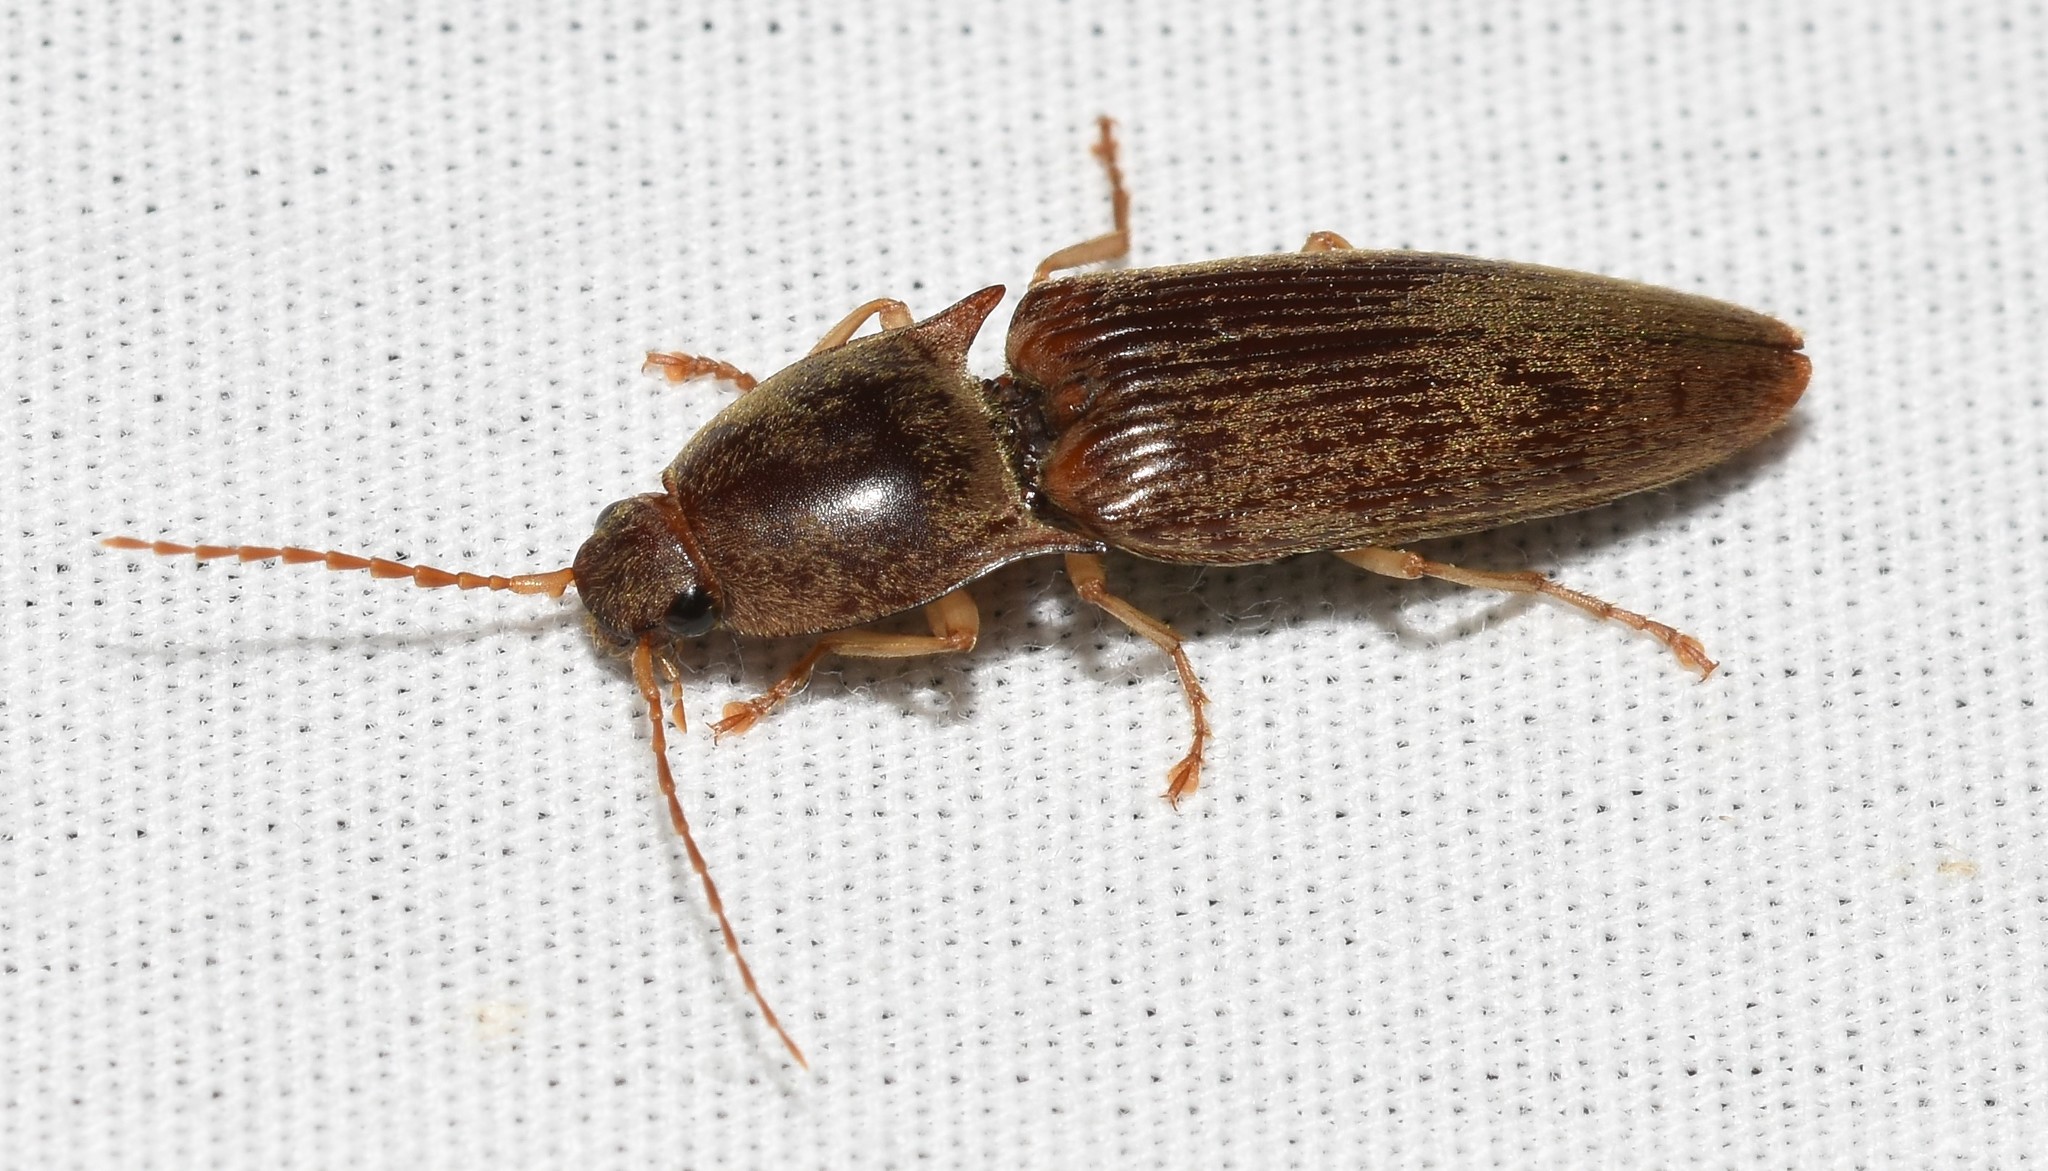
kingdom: Animalia
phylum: Arthropoda
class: Insecta
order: Coleoptera
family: Elateridae
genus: Monocrepidius
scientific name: Monocrepidius lividus
